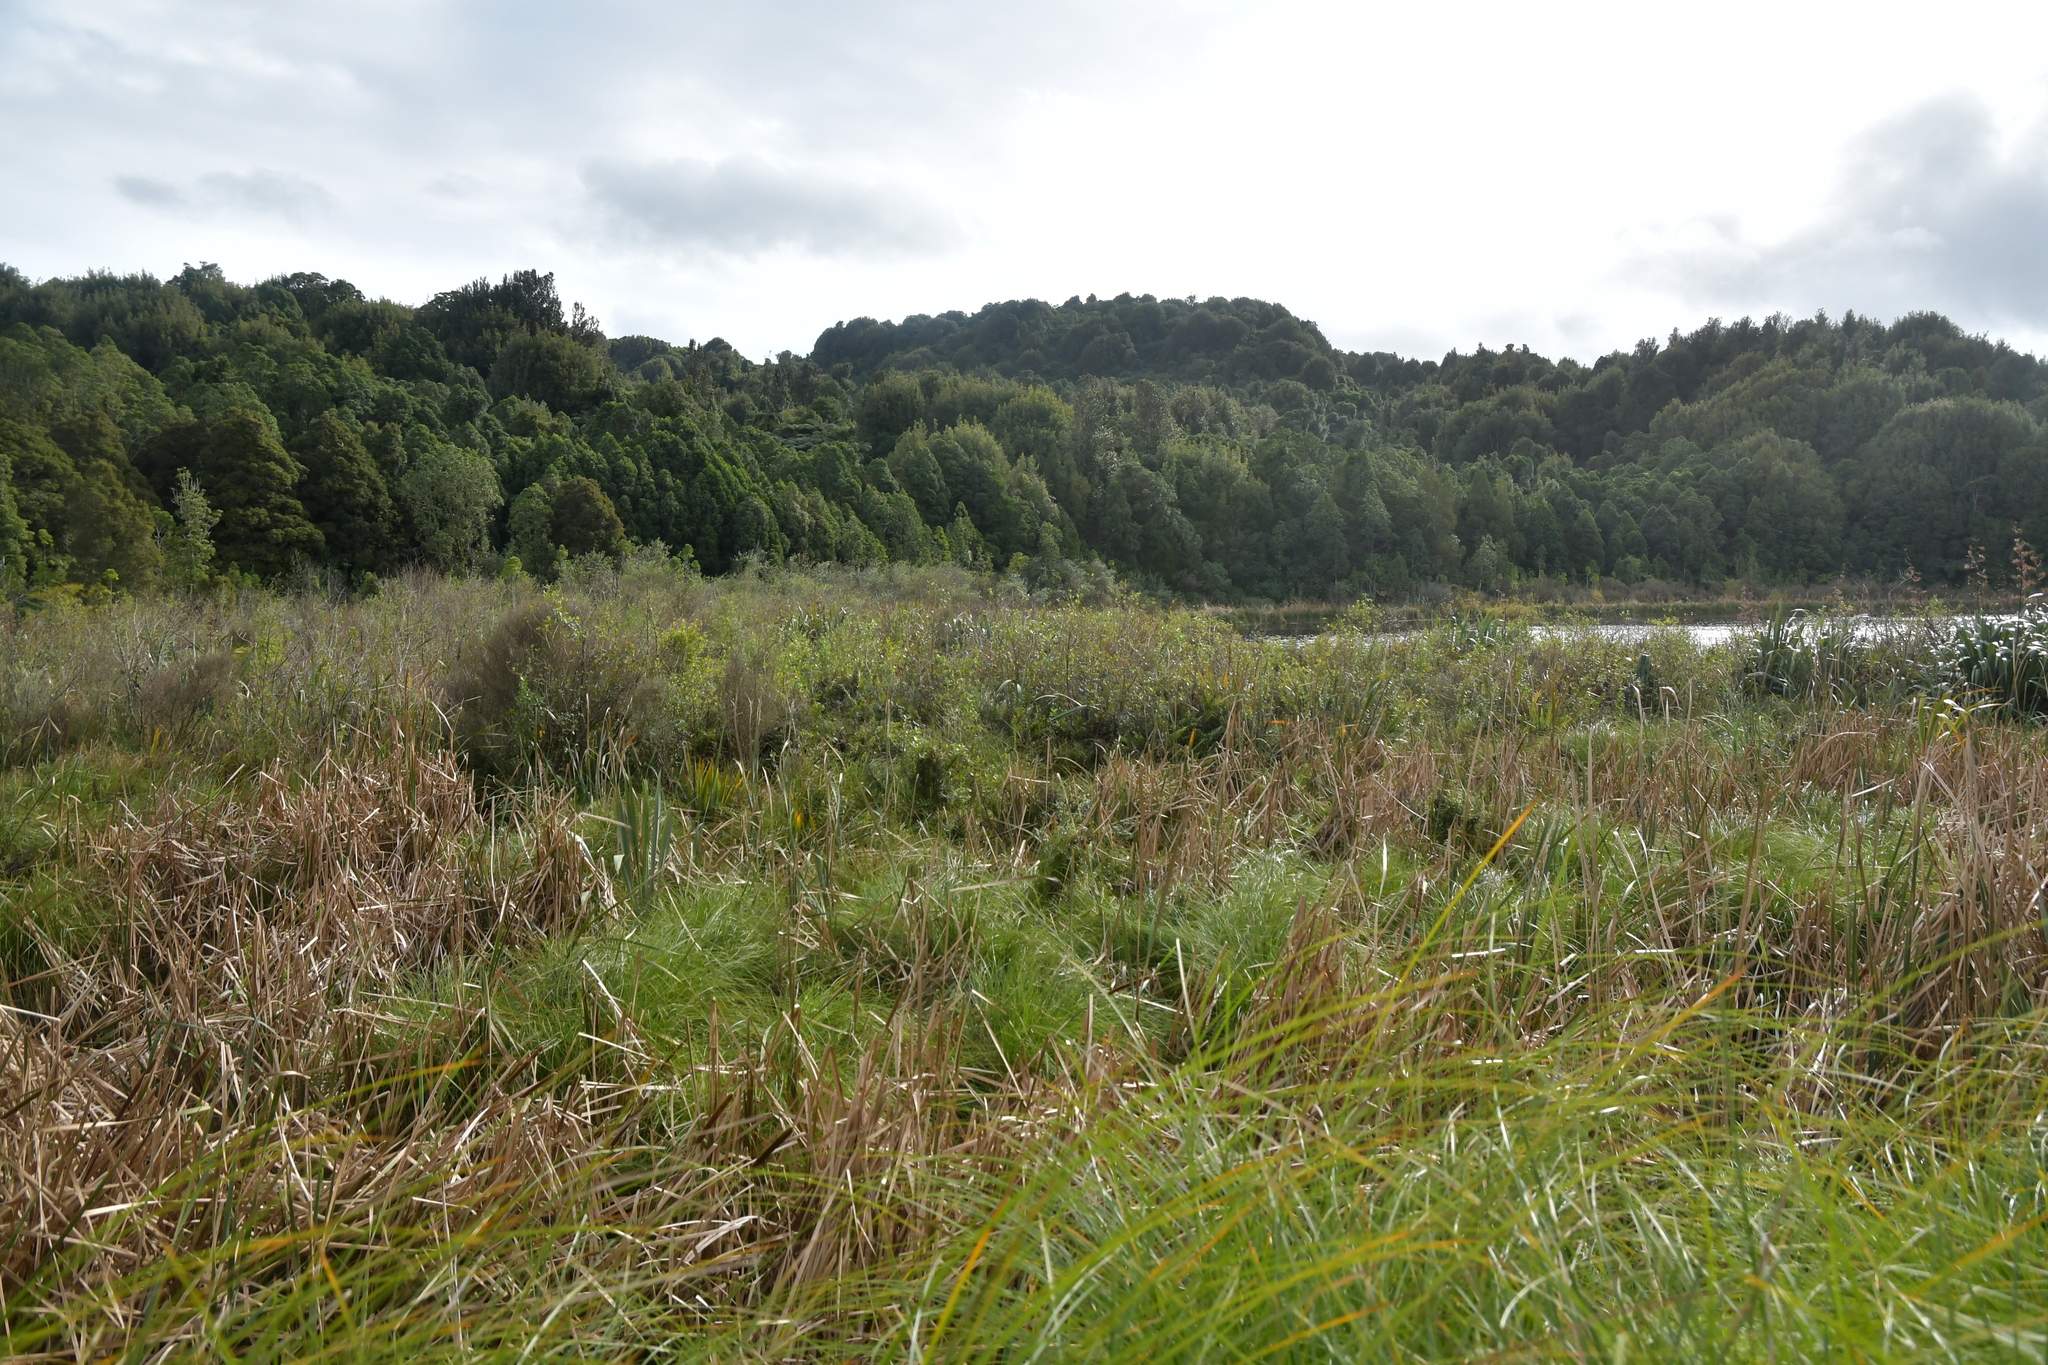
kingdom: Plantae
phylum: Tracheophyta
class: Liliopsida
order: Poales
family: Typhaceae
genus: Typha
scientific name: Typha orientalis
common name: Bullrush
